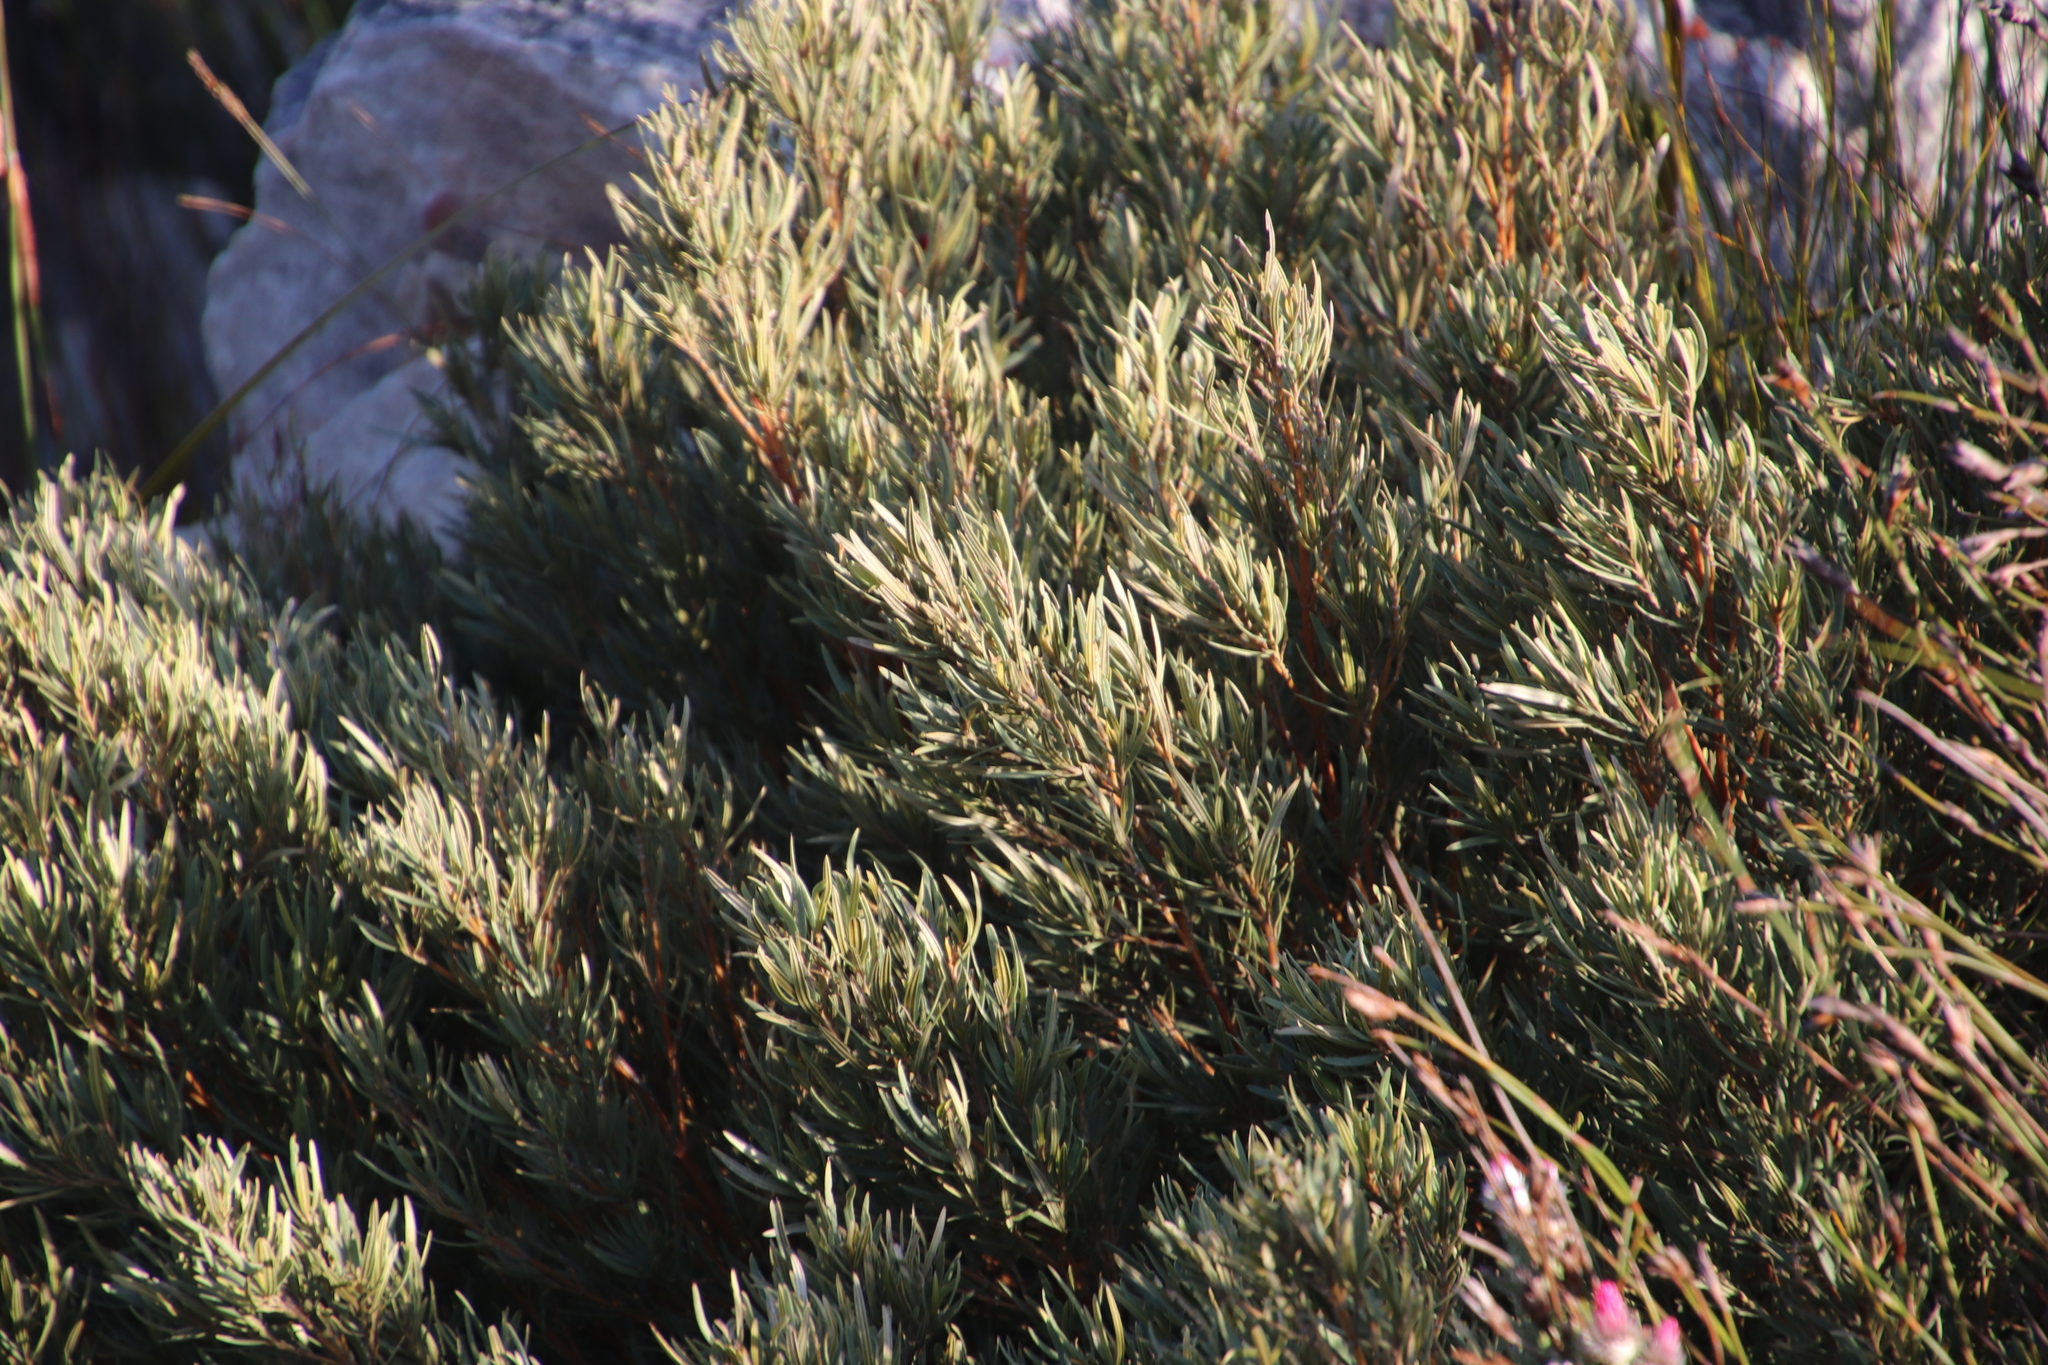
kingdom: Plantae
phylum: Tracheophyta
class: Magnoliopsida
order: Cornales
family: Grubbiaceae
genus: Grubbia
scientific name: Grubbia tomentosa
